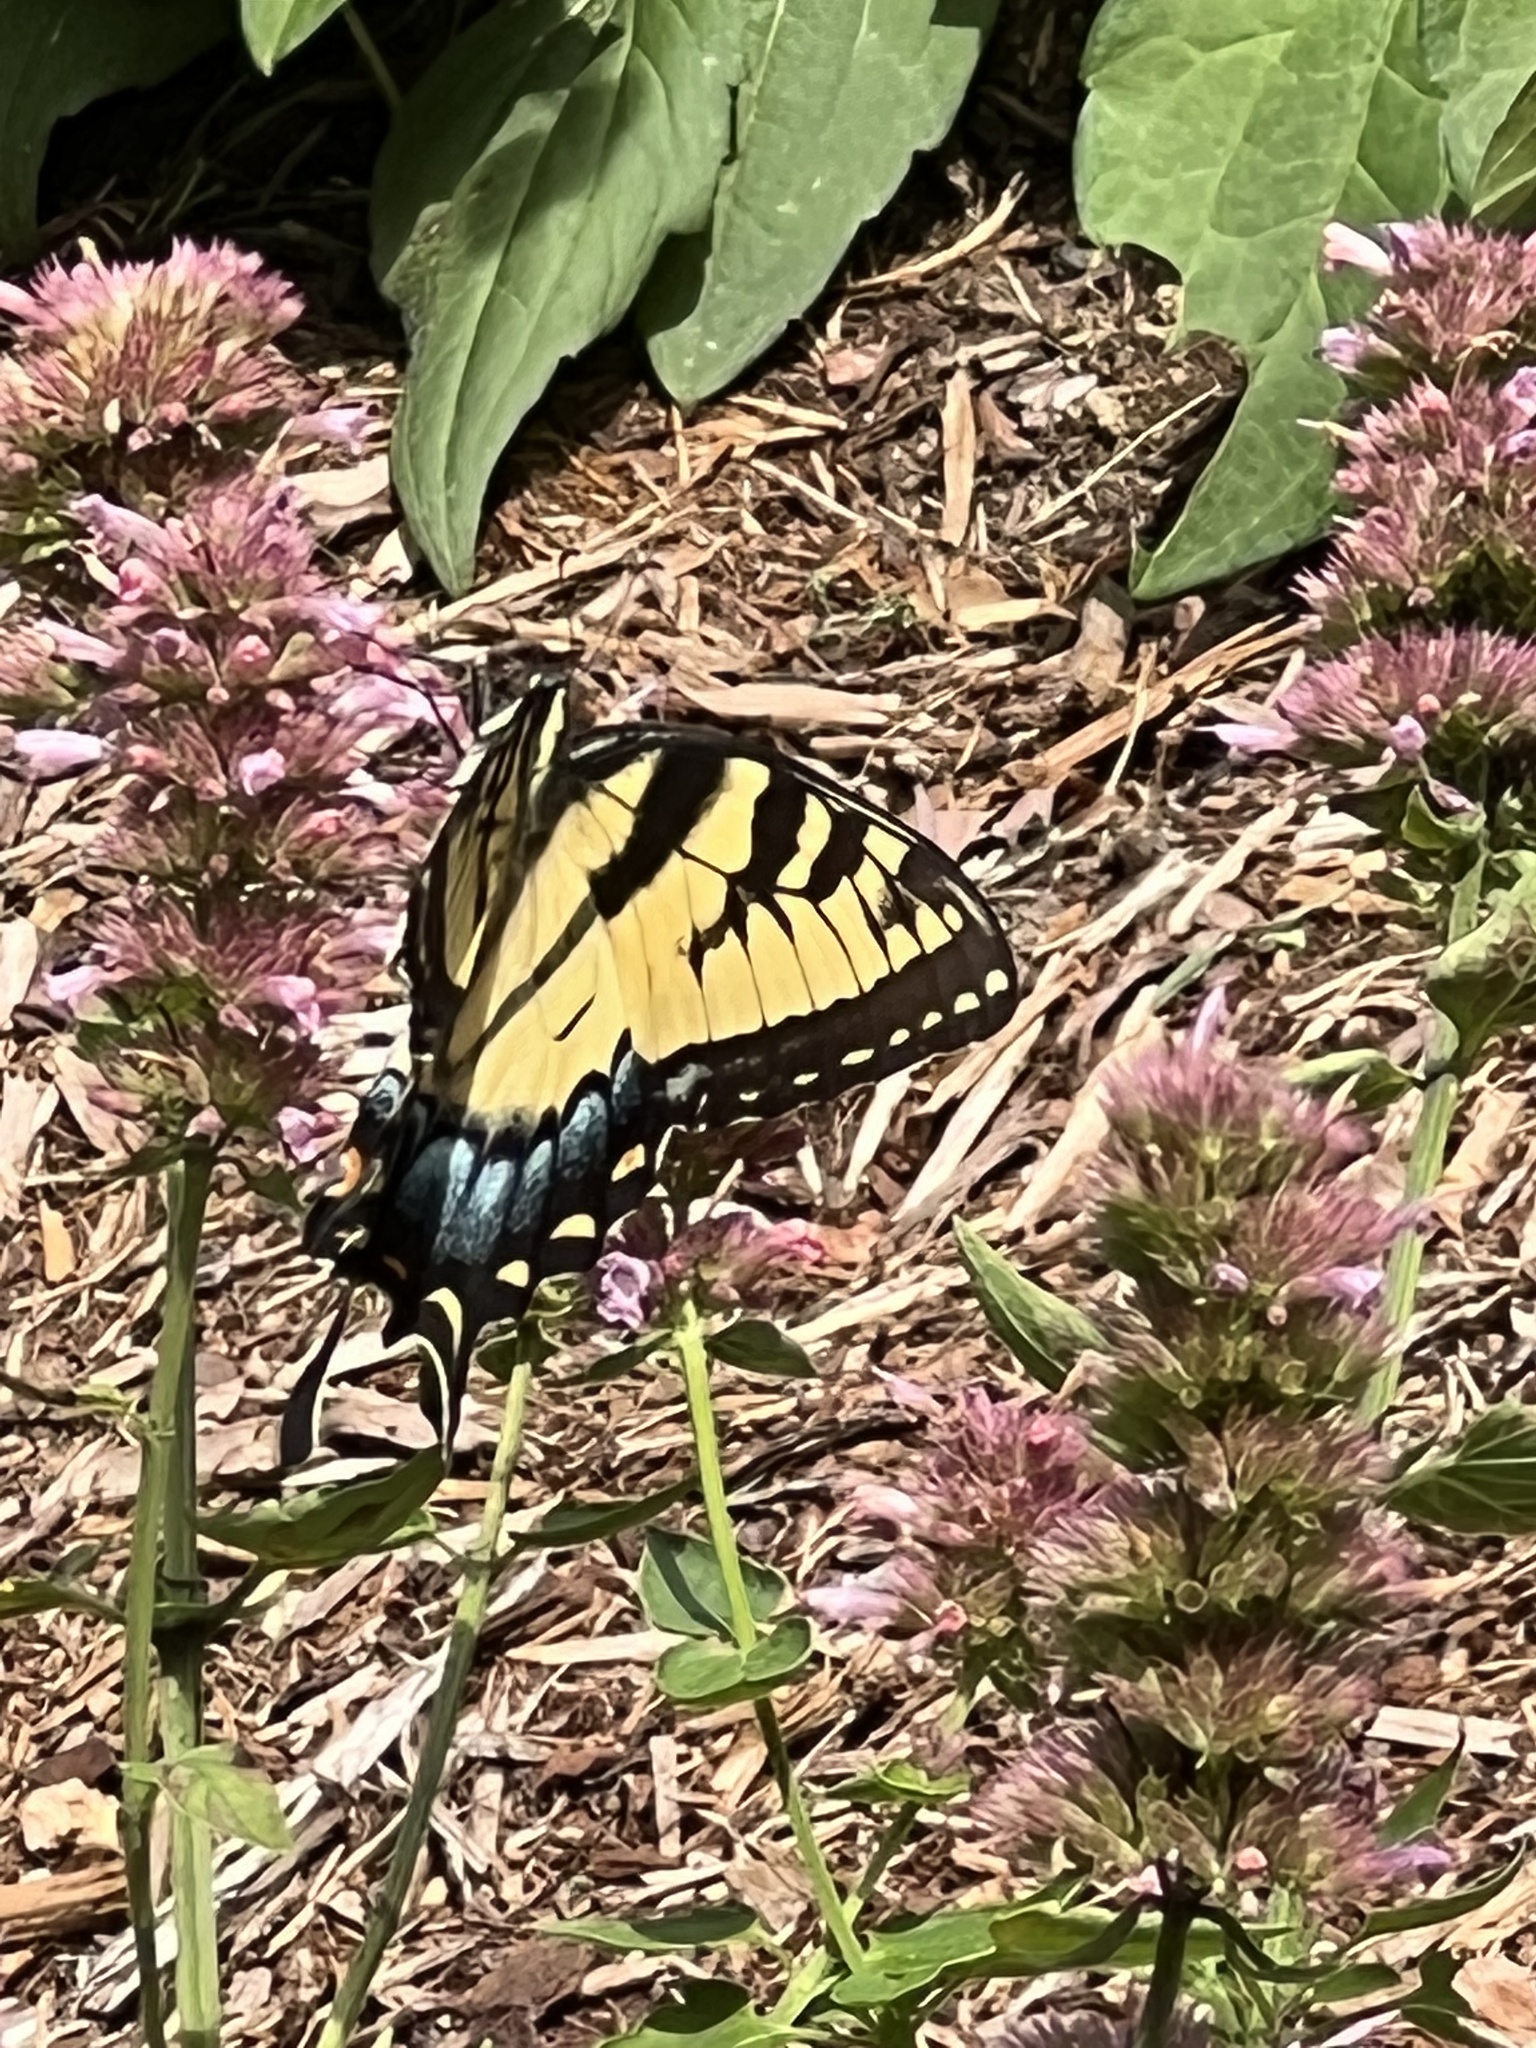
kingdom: Animalia
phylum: Arthropoda
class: Insecta
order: Lepidoptera
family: Papilionidae
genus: Papilio
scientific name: Papilio glaucus
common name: Tiger swallowtail
